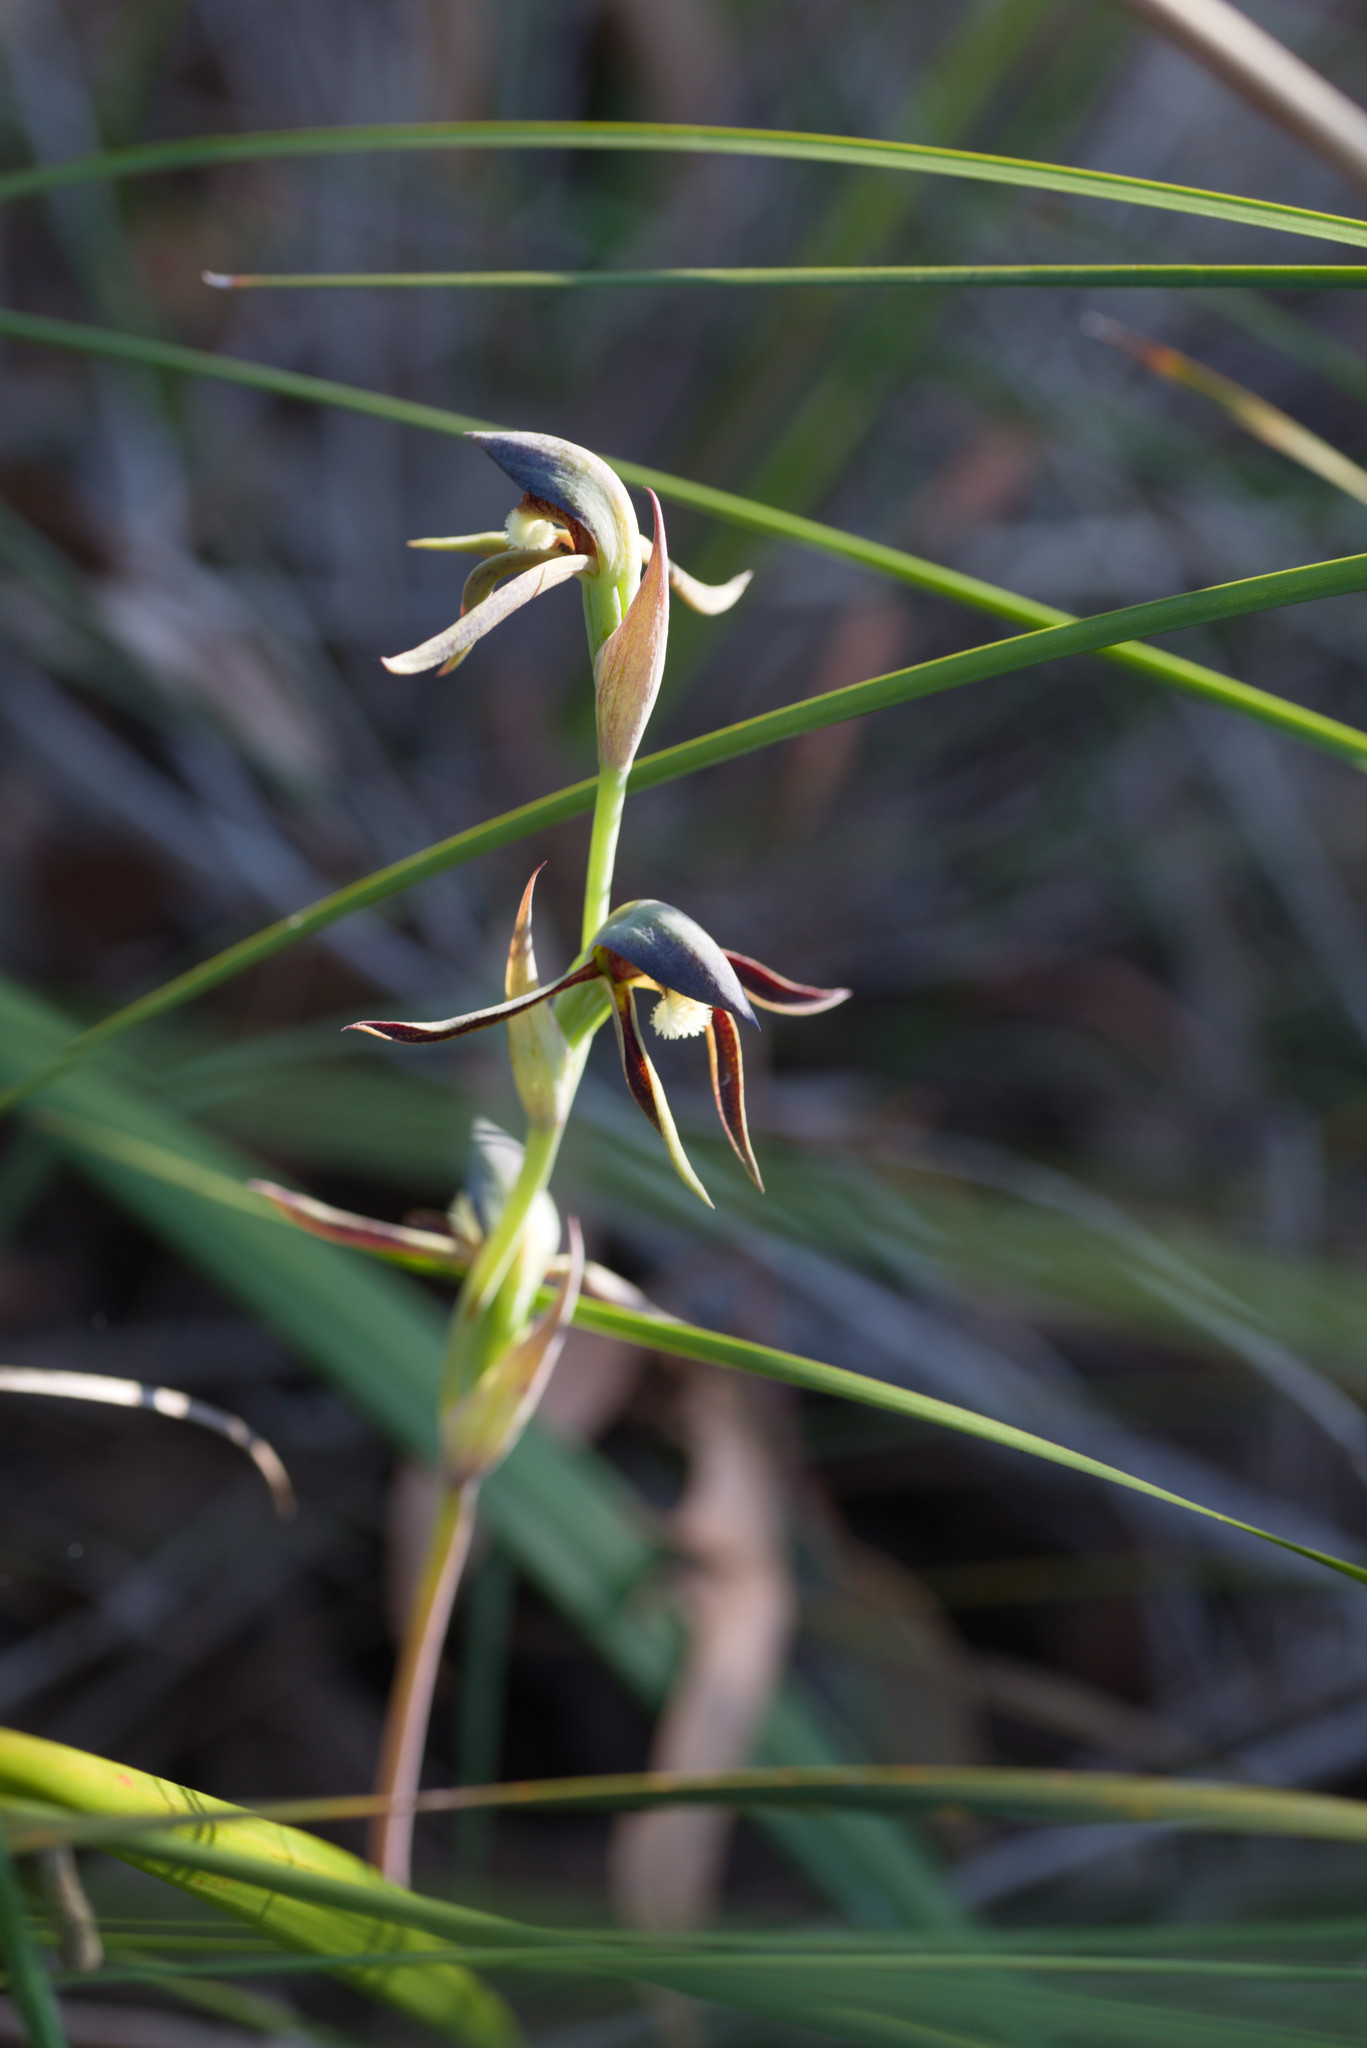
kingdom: Plantae
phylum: Tracheophyta
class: Liliopsida
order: Asparagales
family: Orchidaceae
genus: Lyperanthus
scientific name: Lyperanthus serratus
